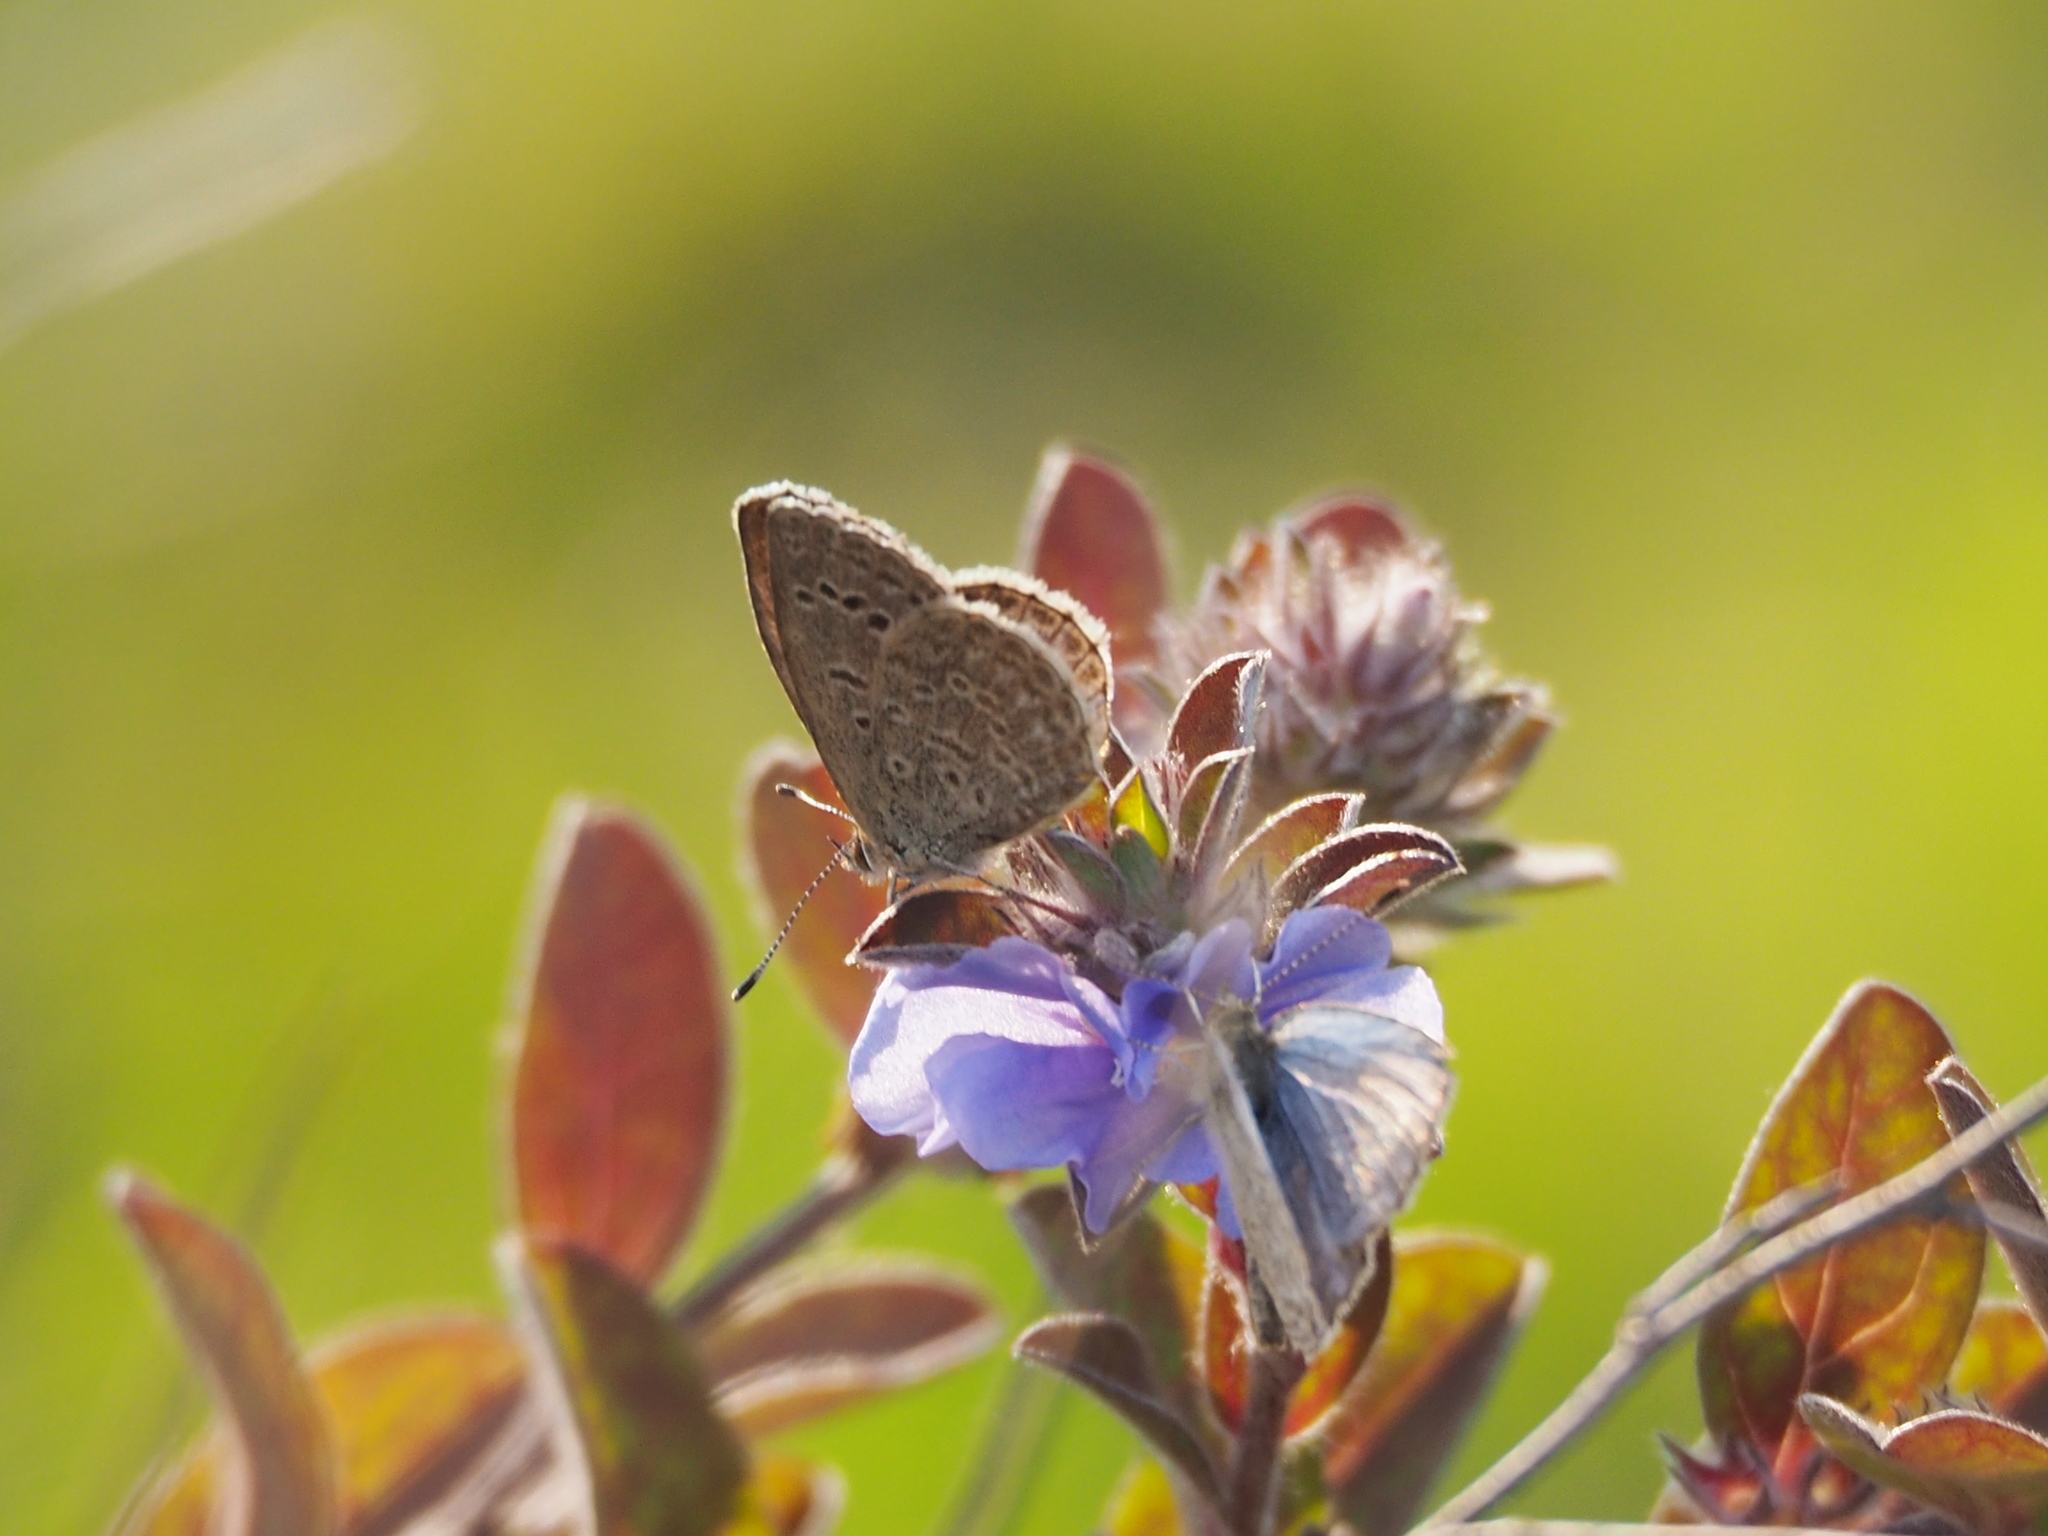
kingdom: Animalia
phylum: Arthropoda
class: Insecta
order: Lepidoptera
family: Lycaenidae
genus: Pseudozizeeria
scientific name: Pseudozizeeria maha
